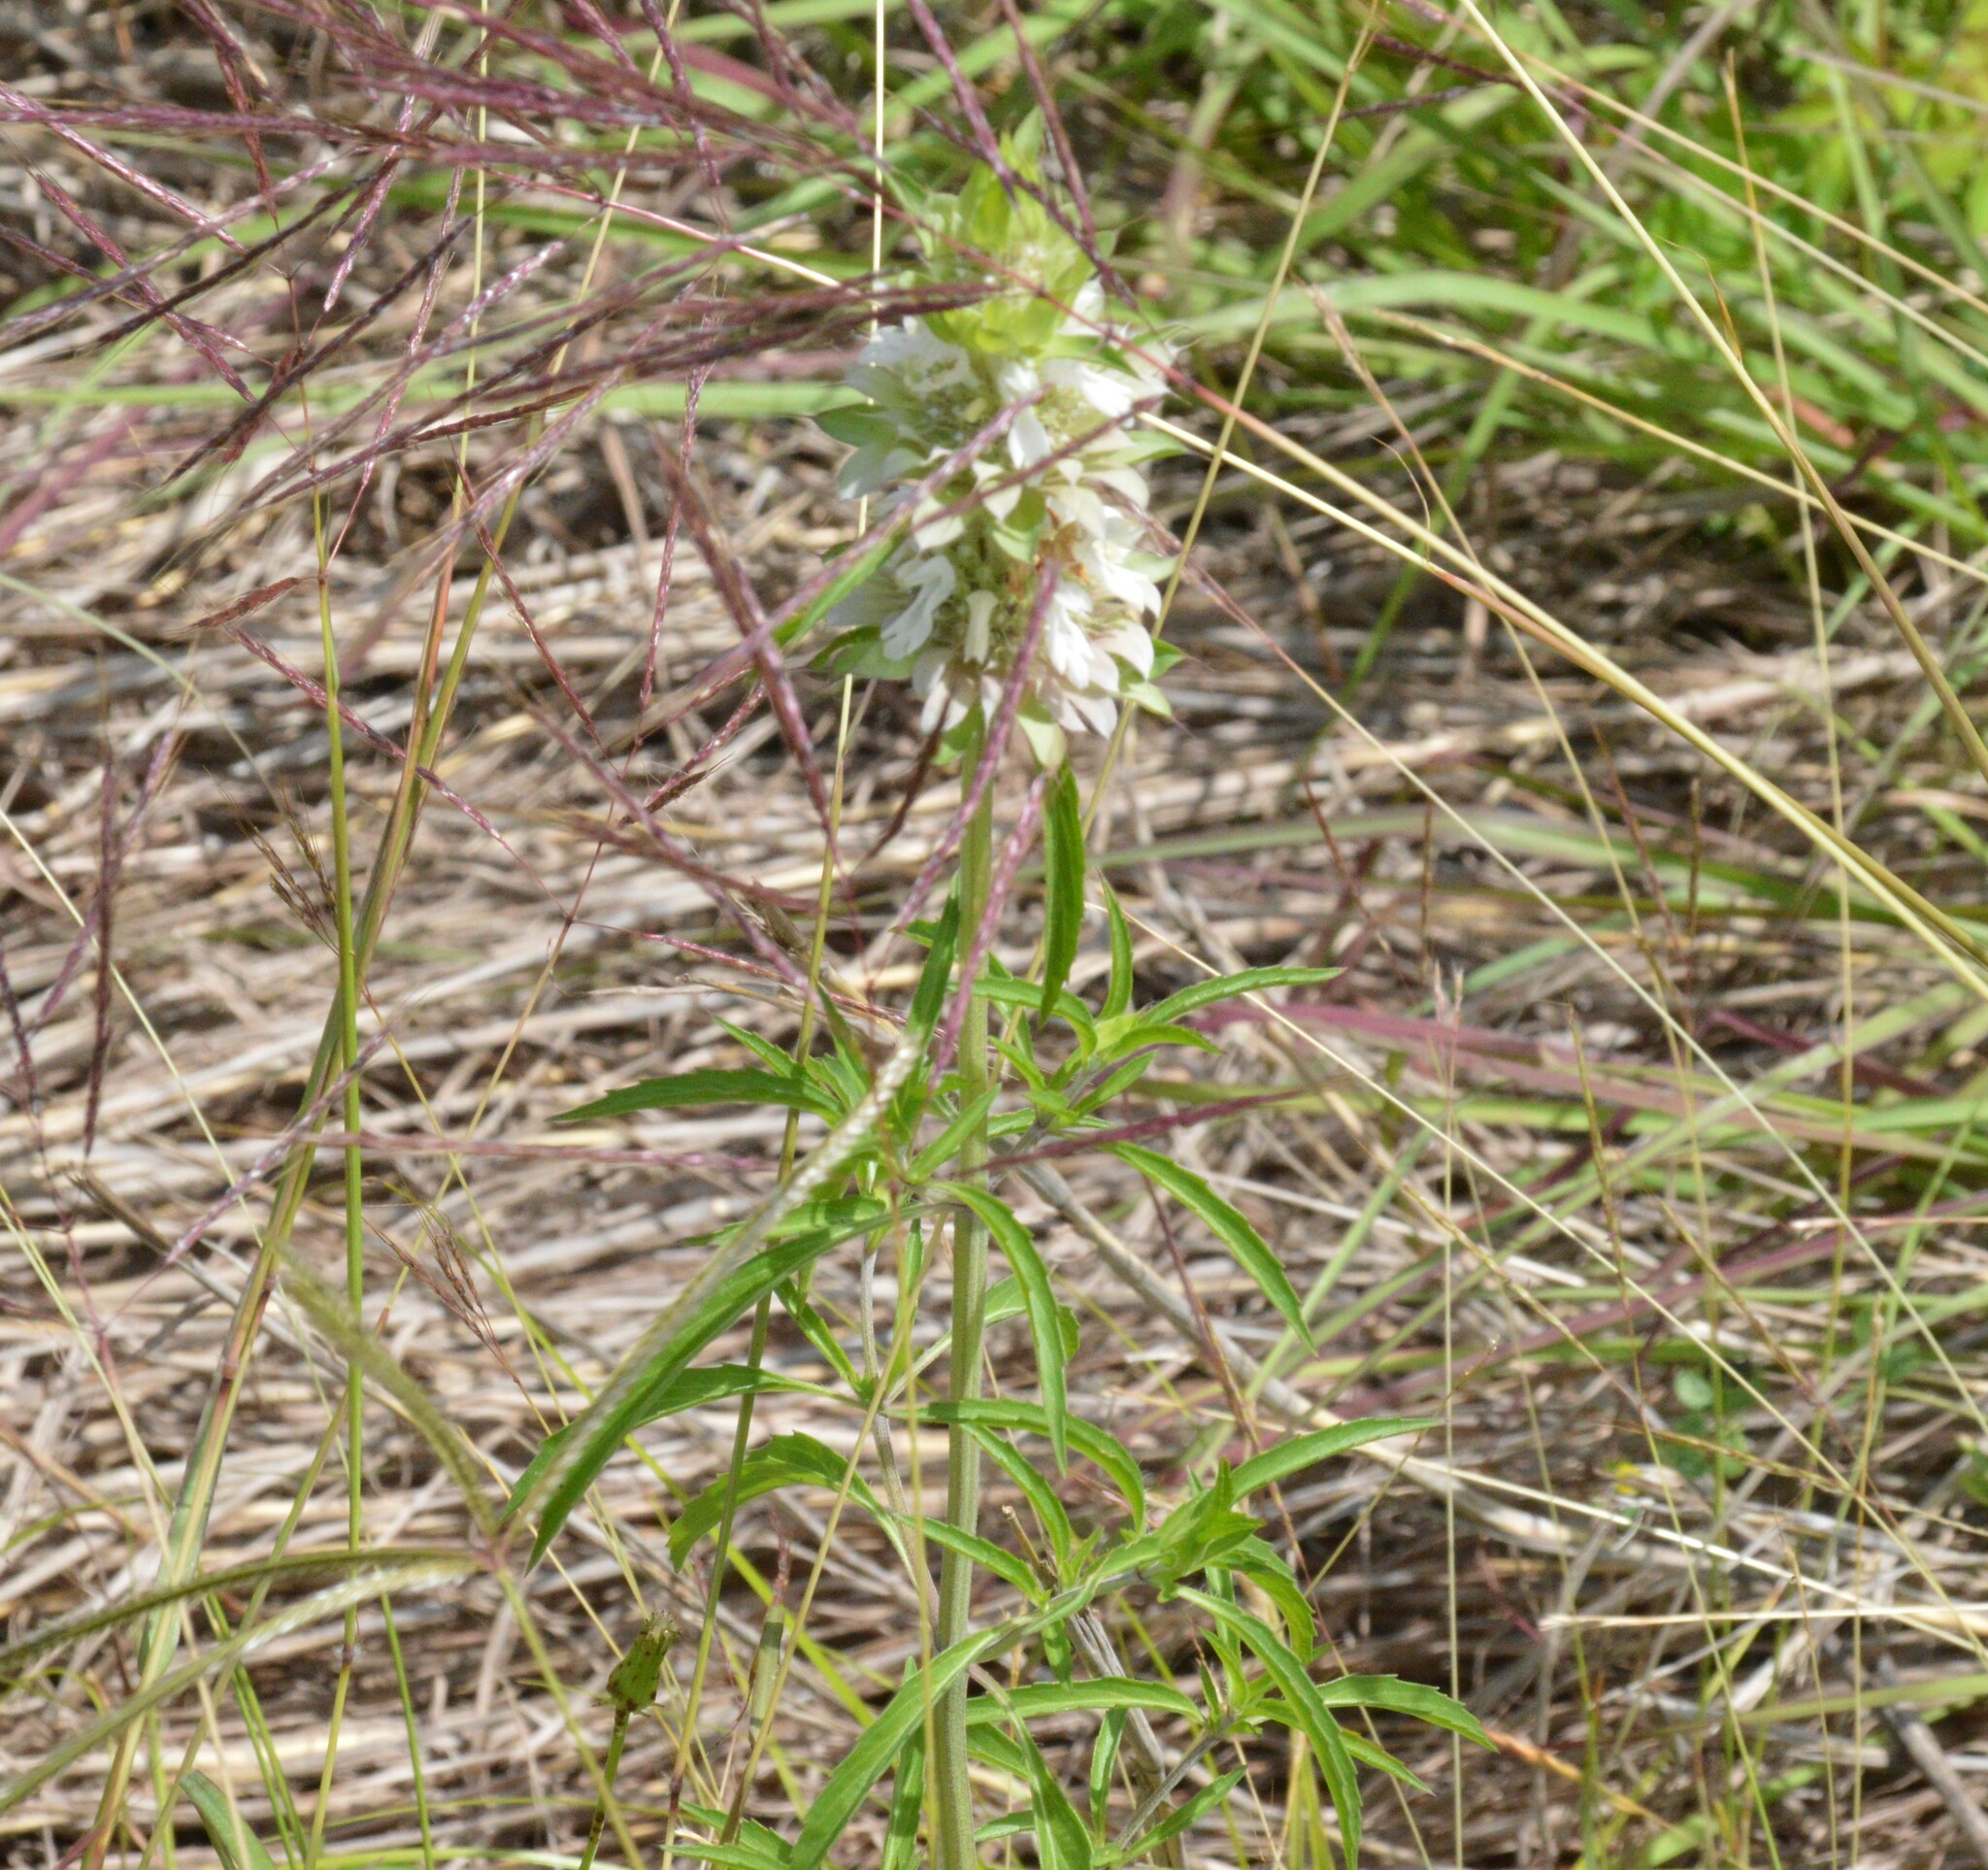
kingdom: Plantae
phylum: Tracheophyta
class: Magnoliopsida
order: Lamiales
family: Lamiaceae
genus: Monarda
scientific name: Monarda citriodora
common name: Lemon beebalm
